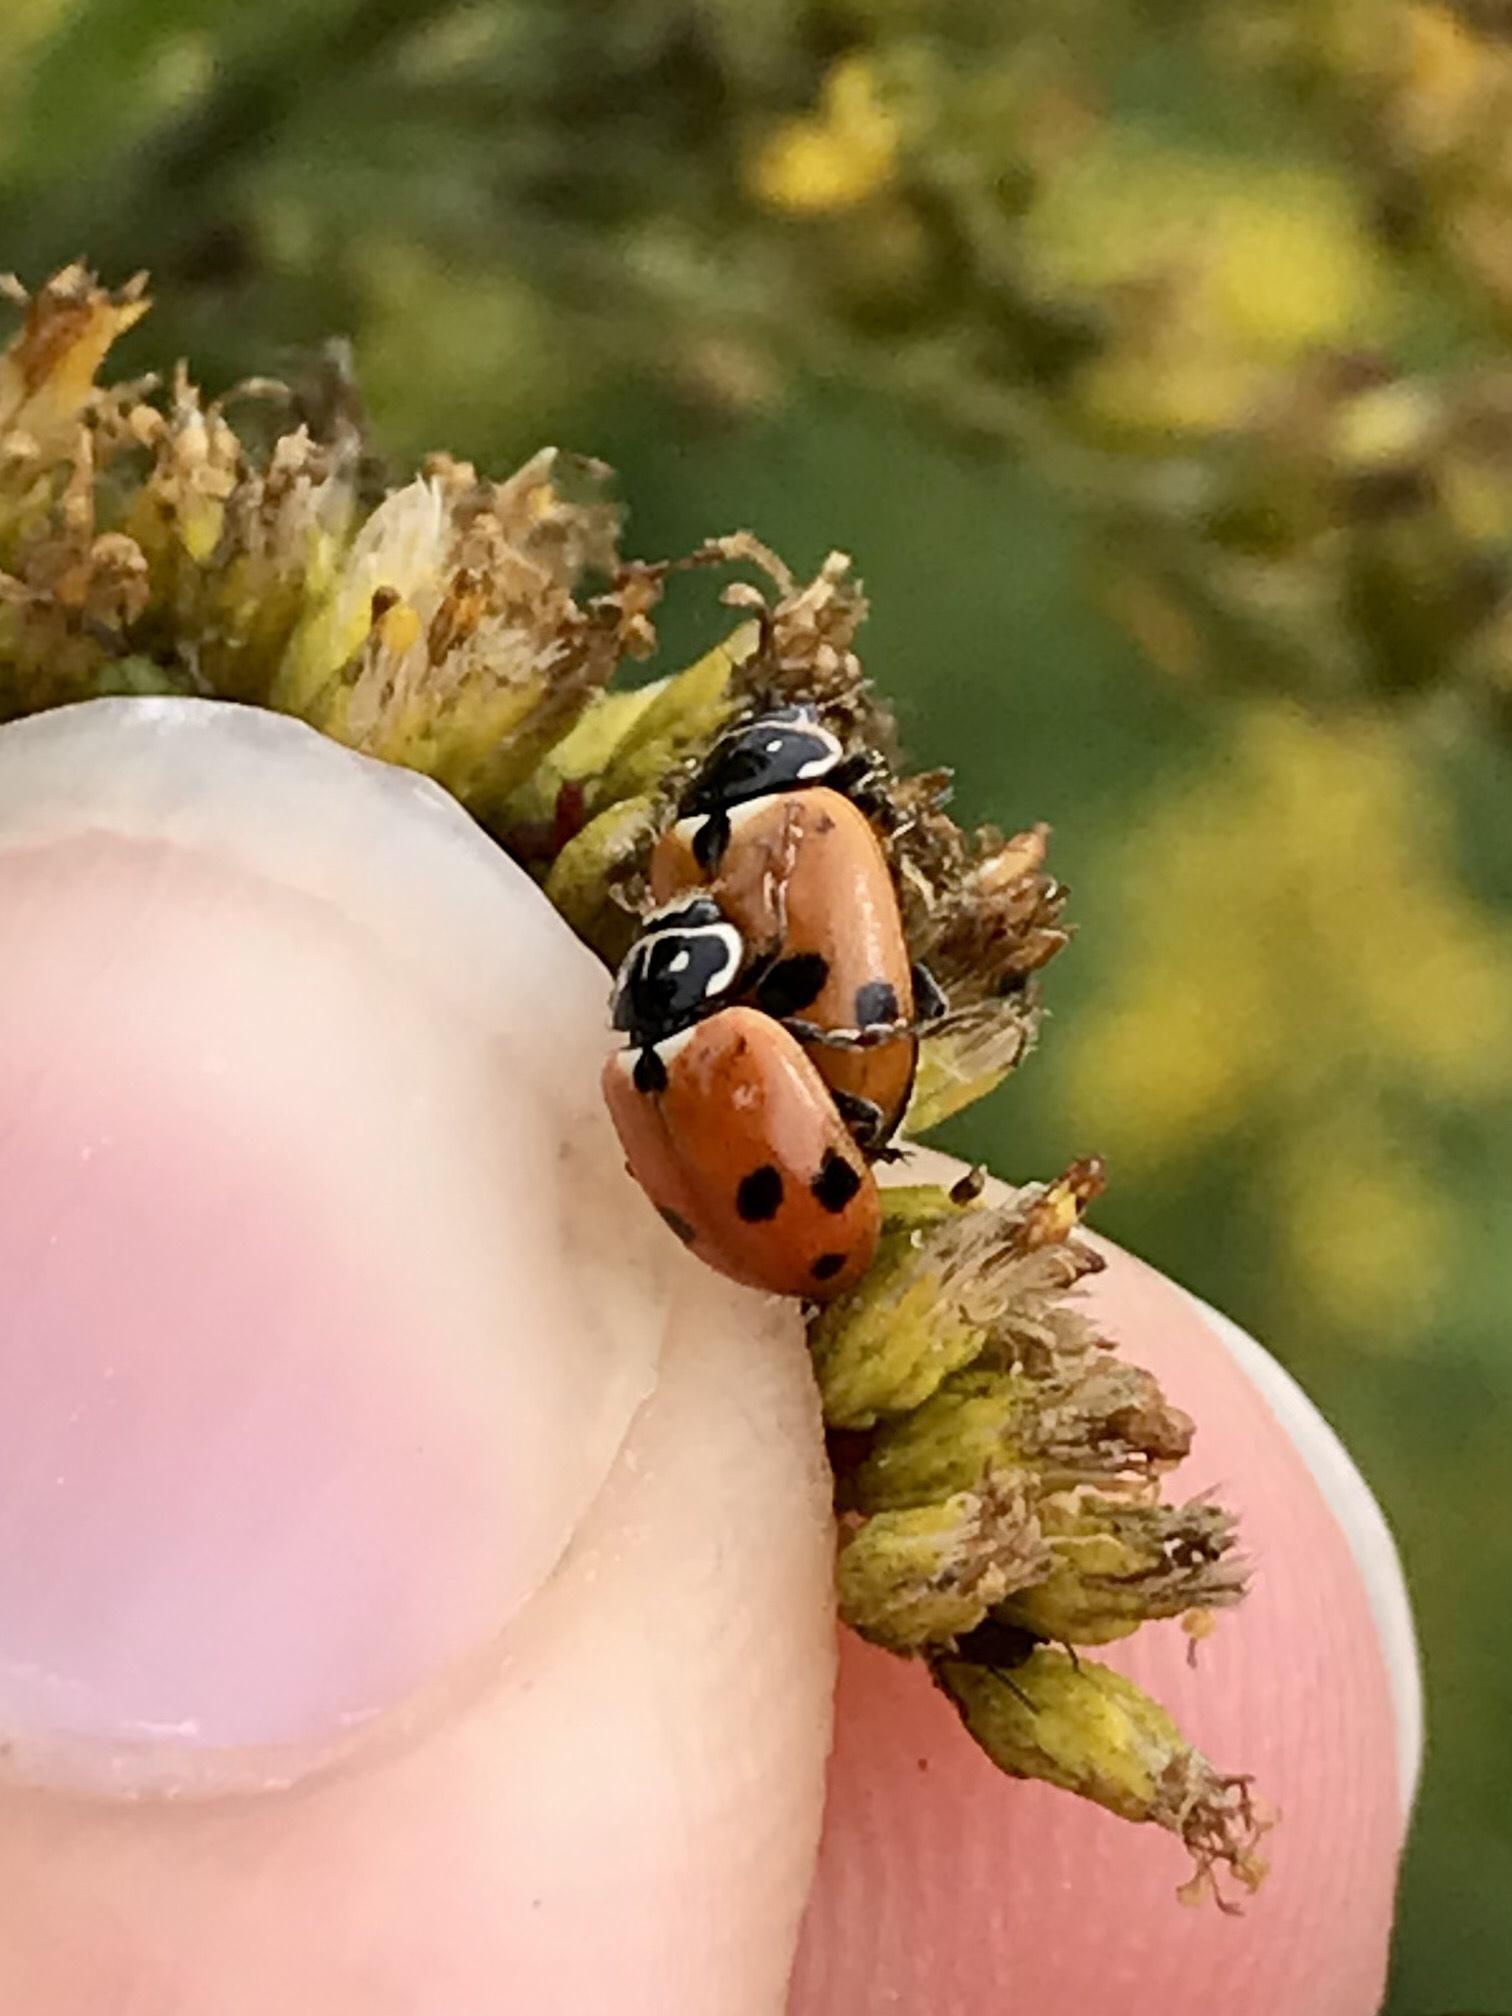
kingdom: Animalia
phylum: Arthropoda
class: Insecta
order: Coleoptera
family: Coccinellidae
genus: Hippodamia
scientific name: Hippodamia variegata
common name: Ladybird beetle
